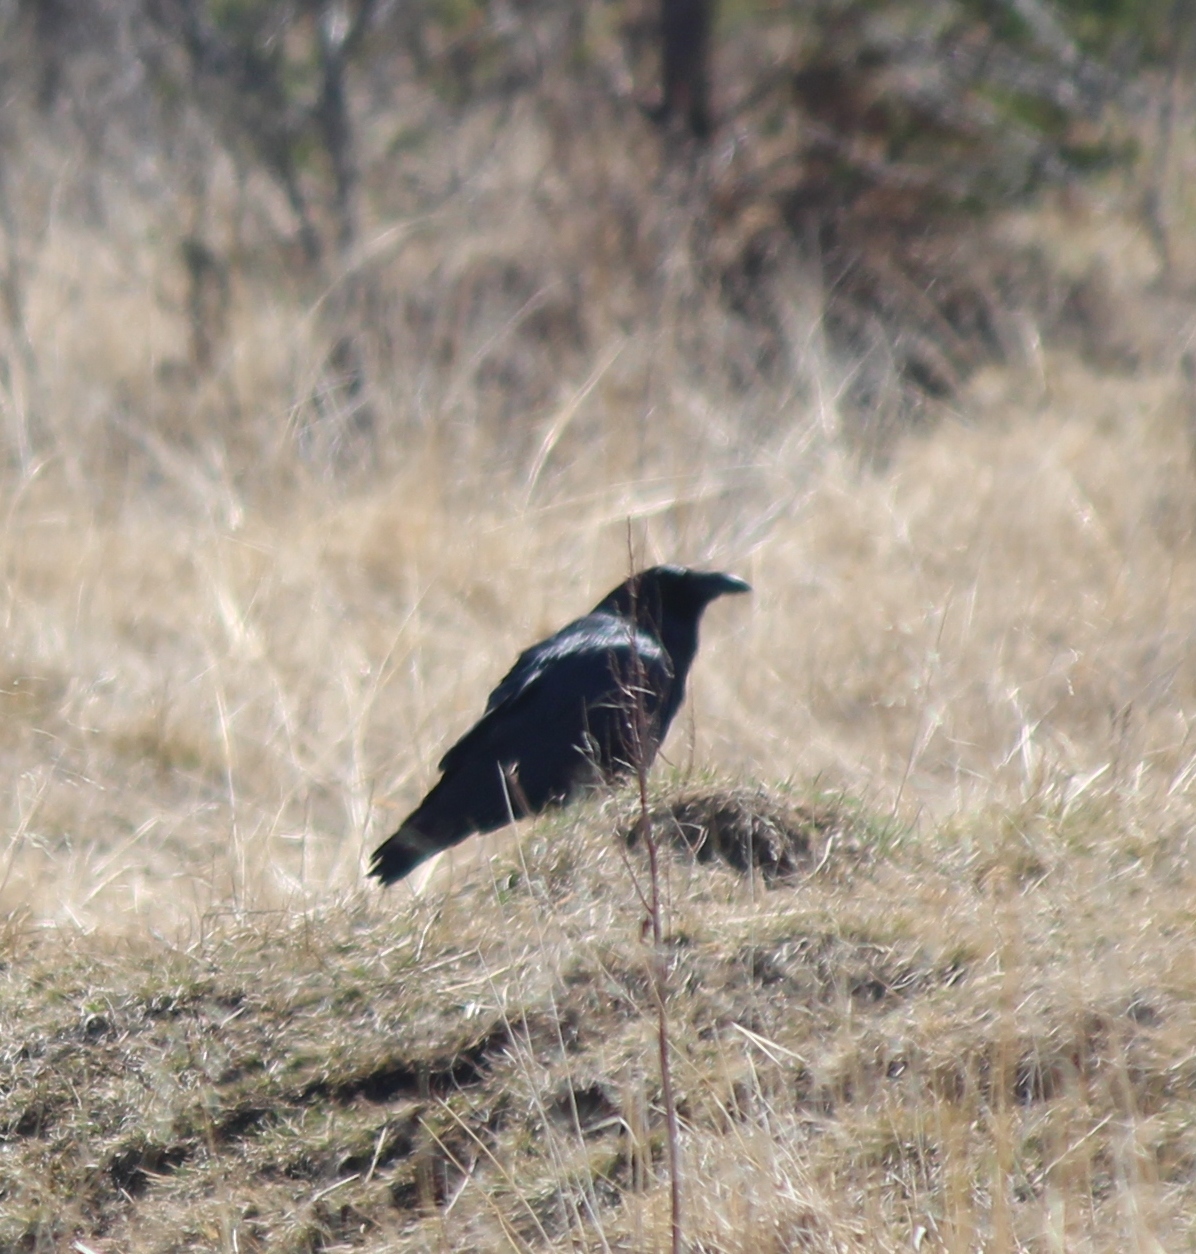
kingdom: Animalia
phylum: Chordata
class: Aves
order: Passeriformes
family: Corvidae
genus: Corvus
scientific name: Corvus corax
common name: Common raven
